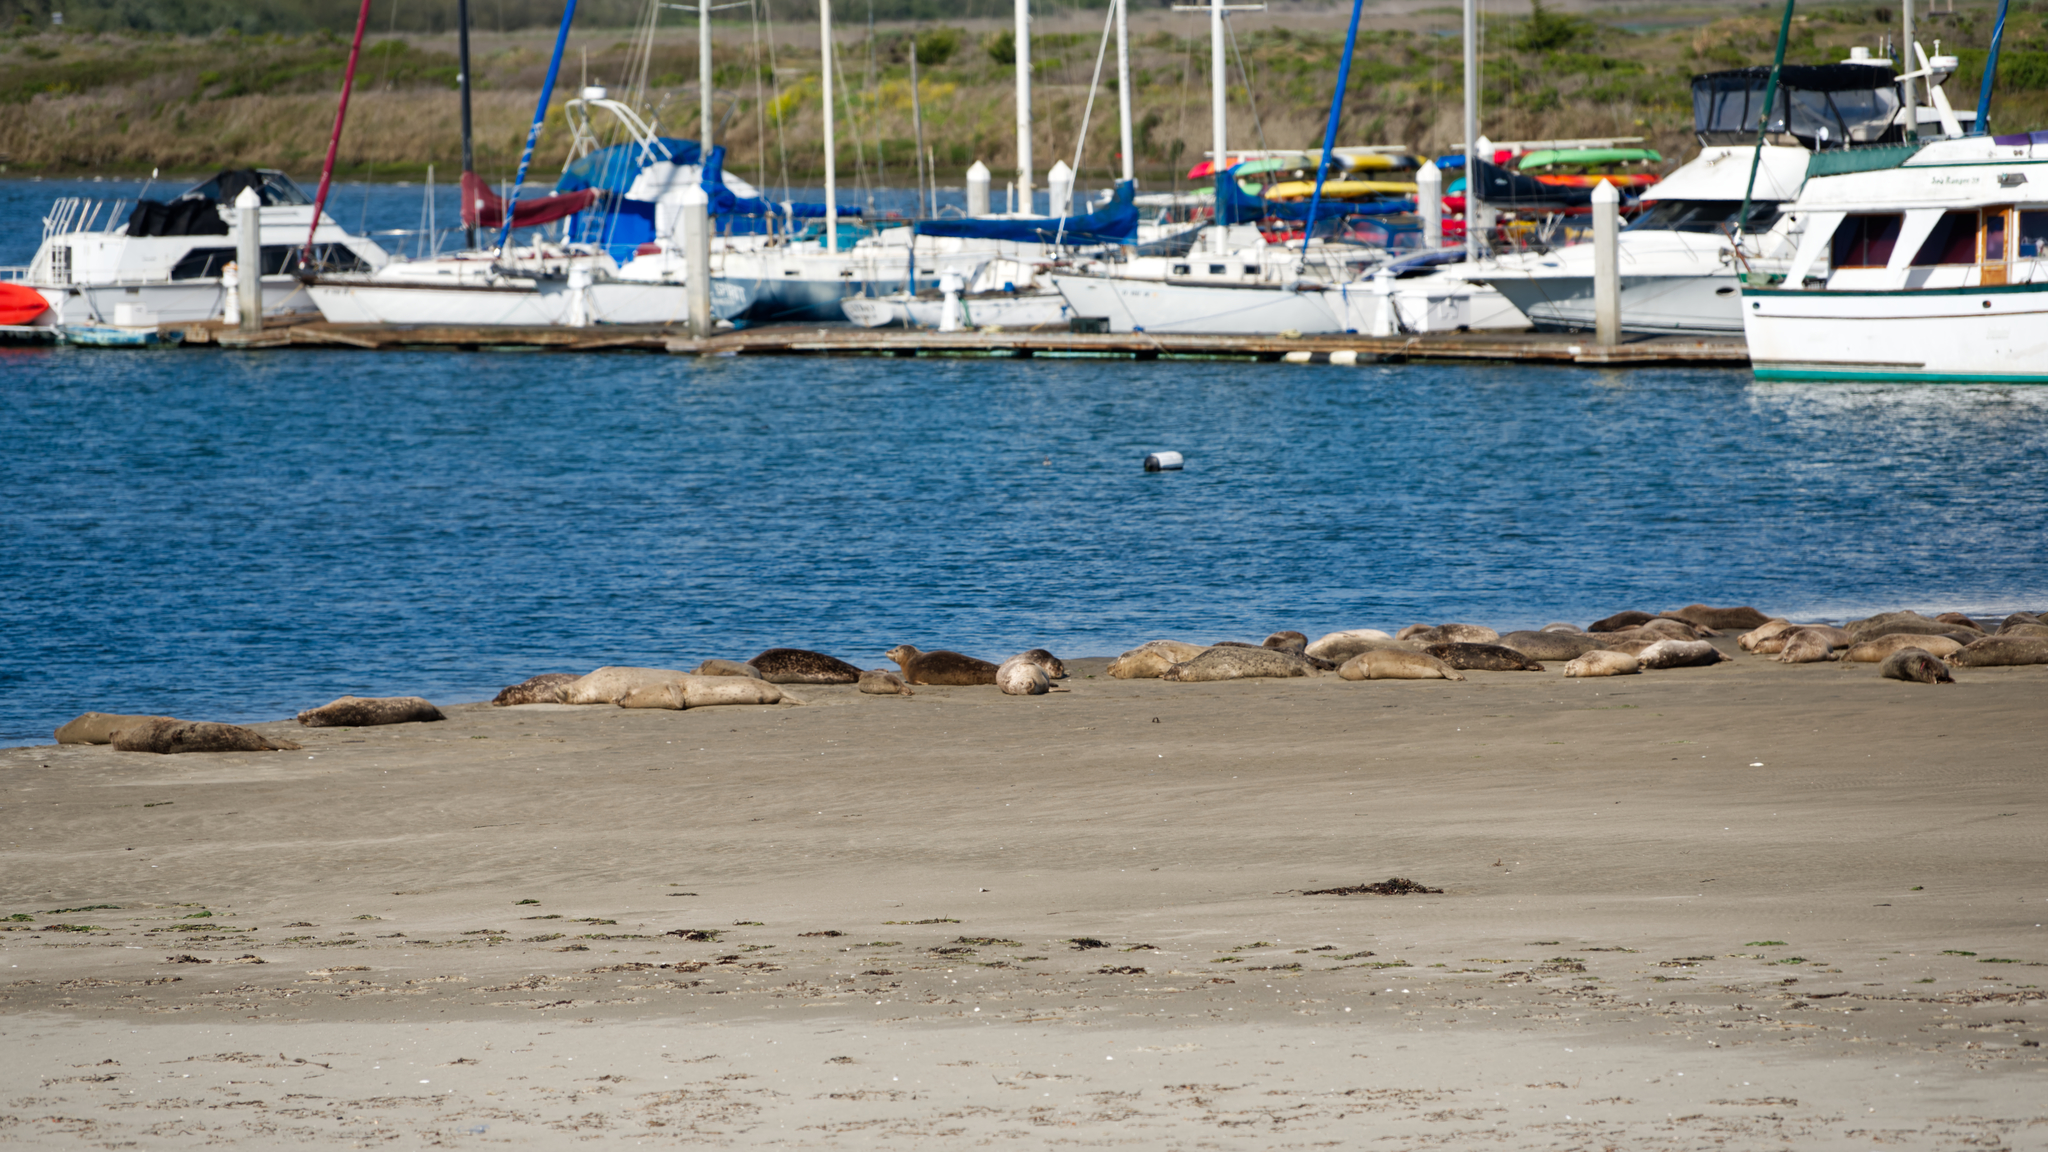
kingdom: Animalia
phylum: Chordata
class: Mammalia
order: Carnivora
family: Phocidae
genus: Phoca
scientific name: Phoca vitulina
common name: Harbor seal
